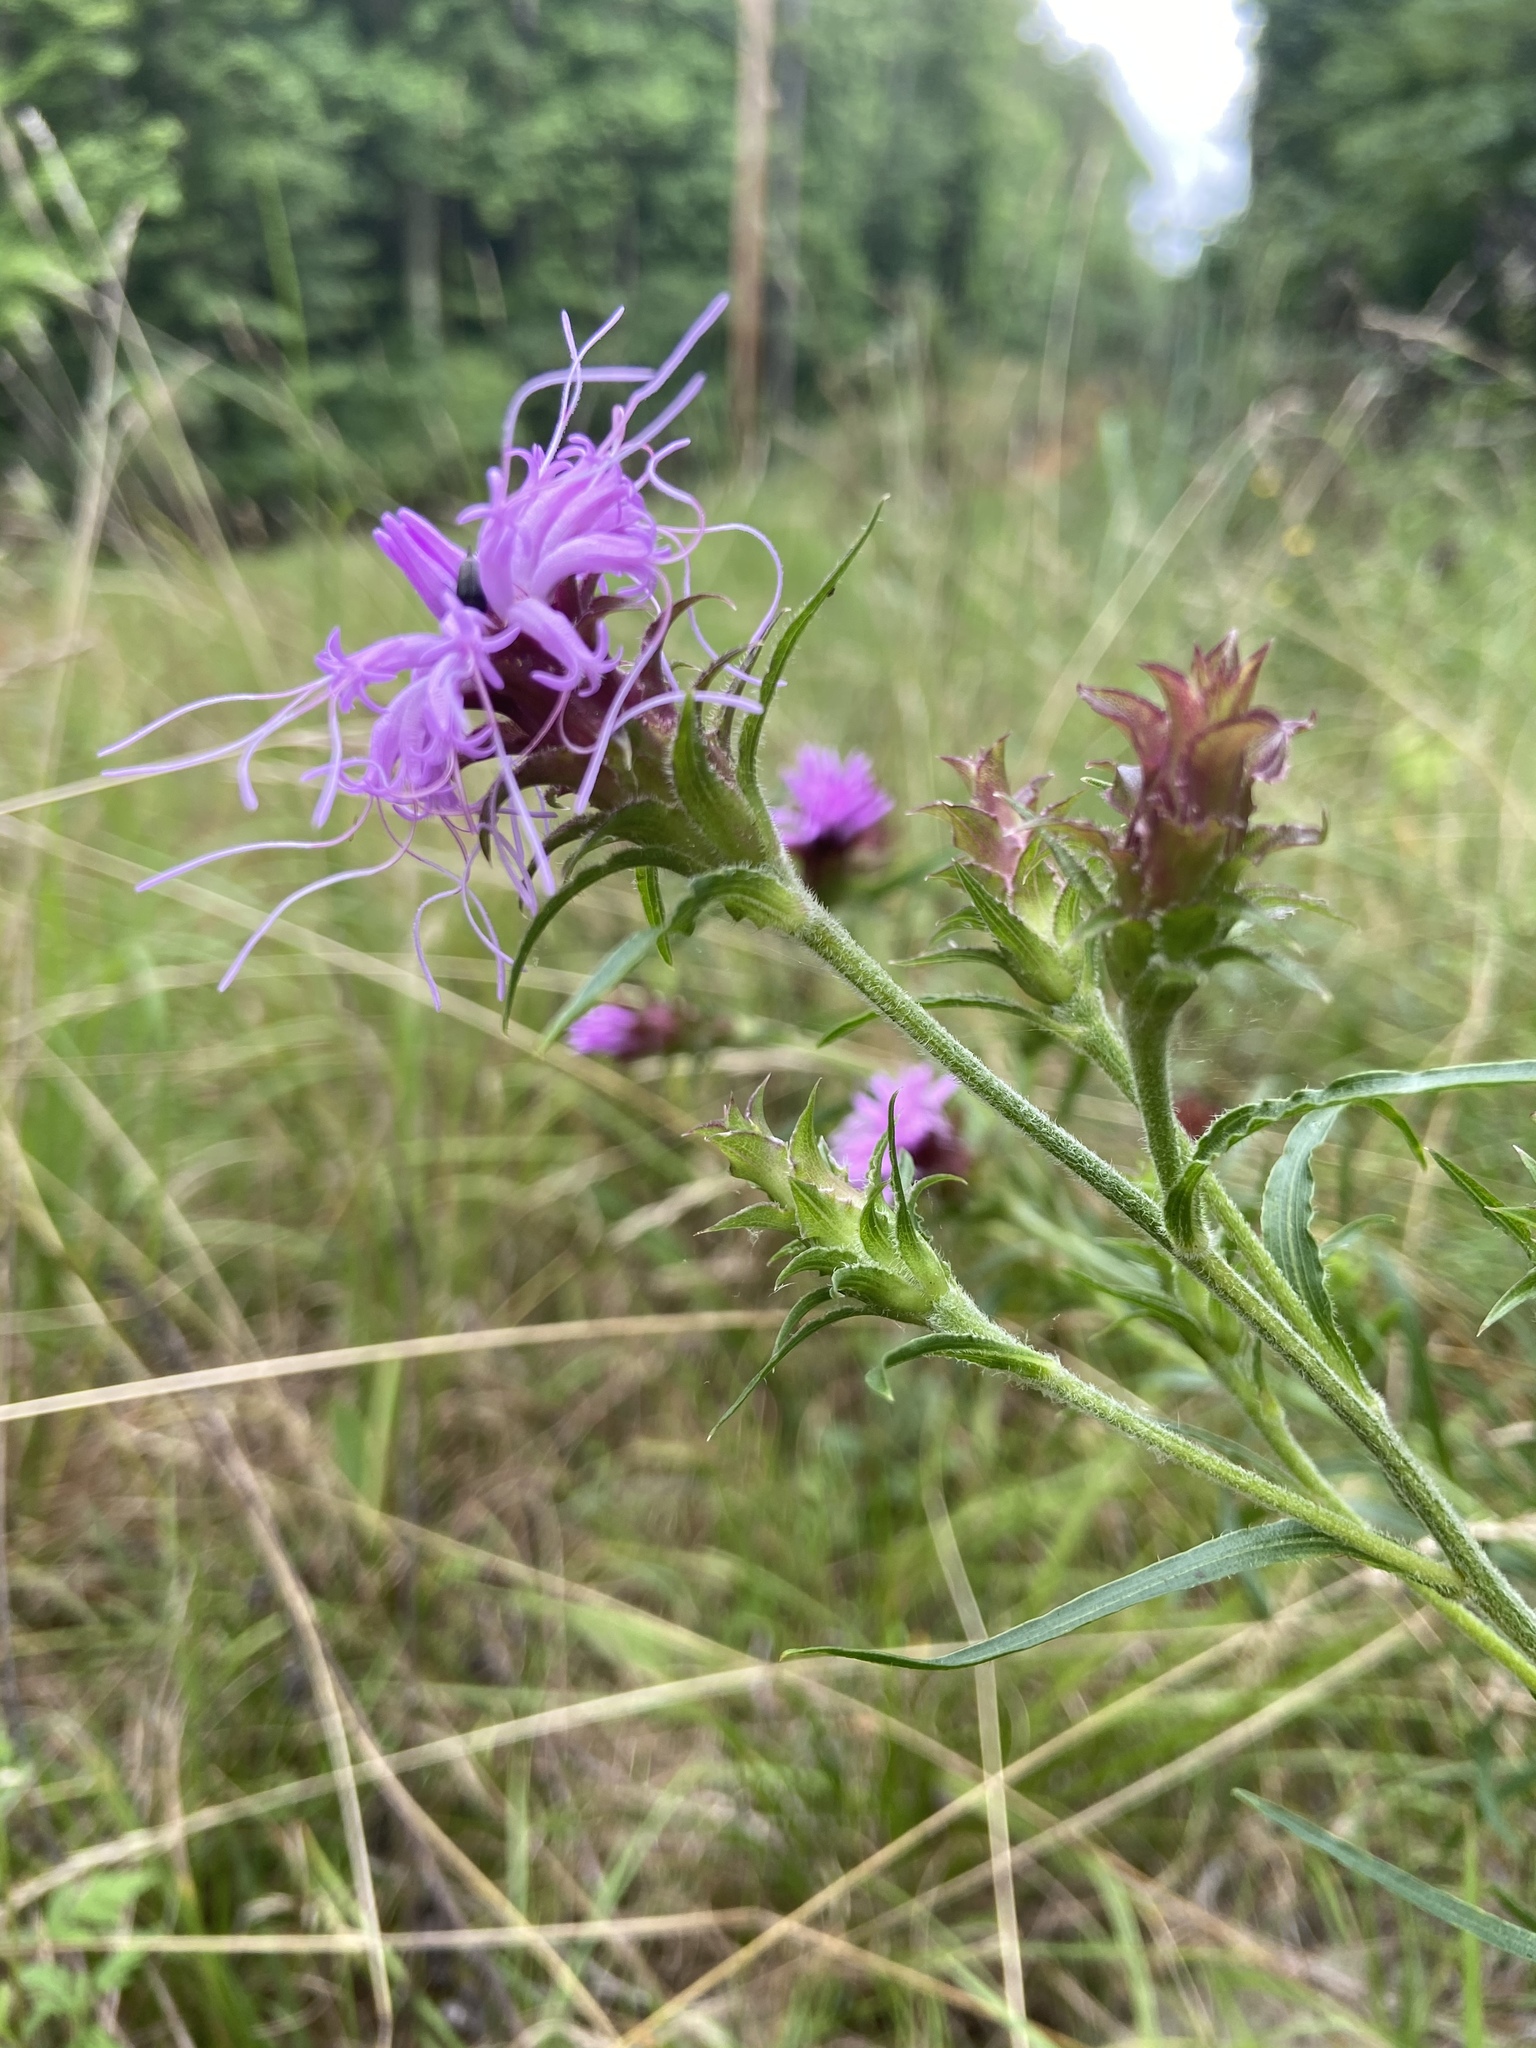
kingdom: Plantae
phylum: Tracheophyta
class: Magnoliopsida
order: Asterales
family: Asteraceae
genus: Liatris
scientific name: Liatris squarrosa
